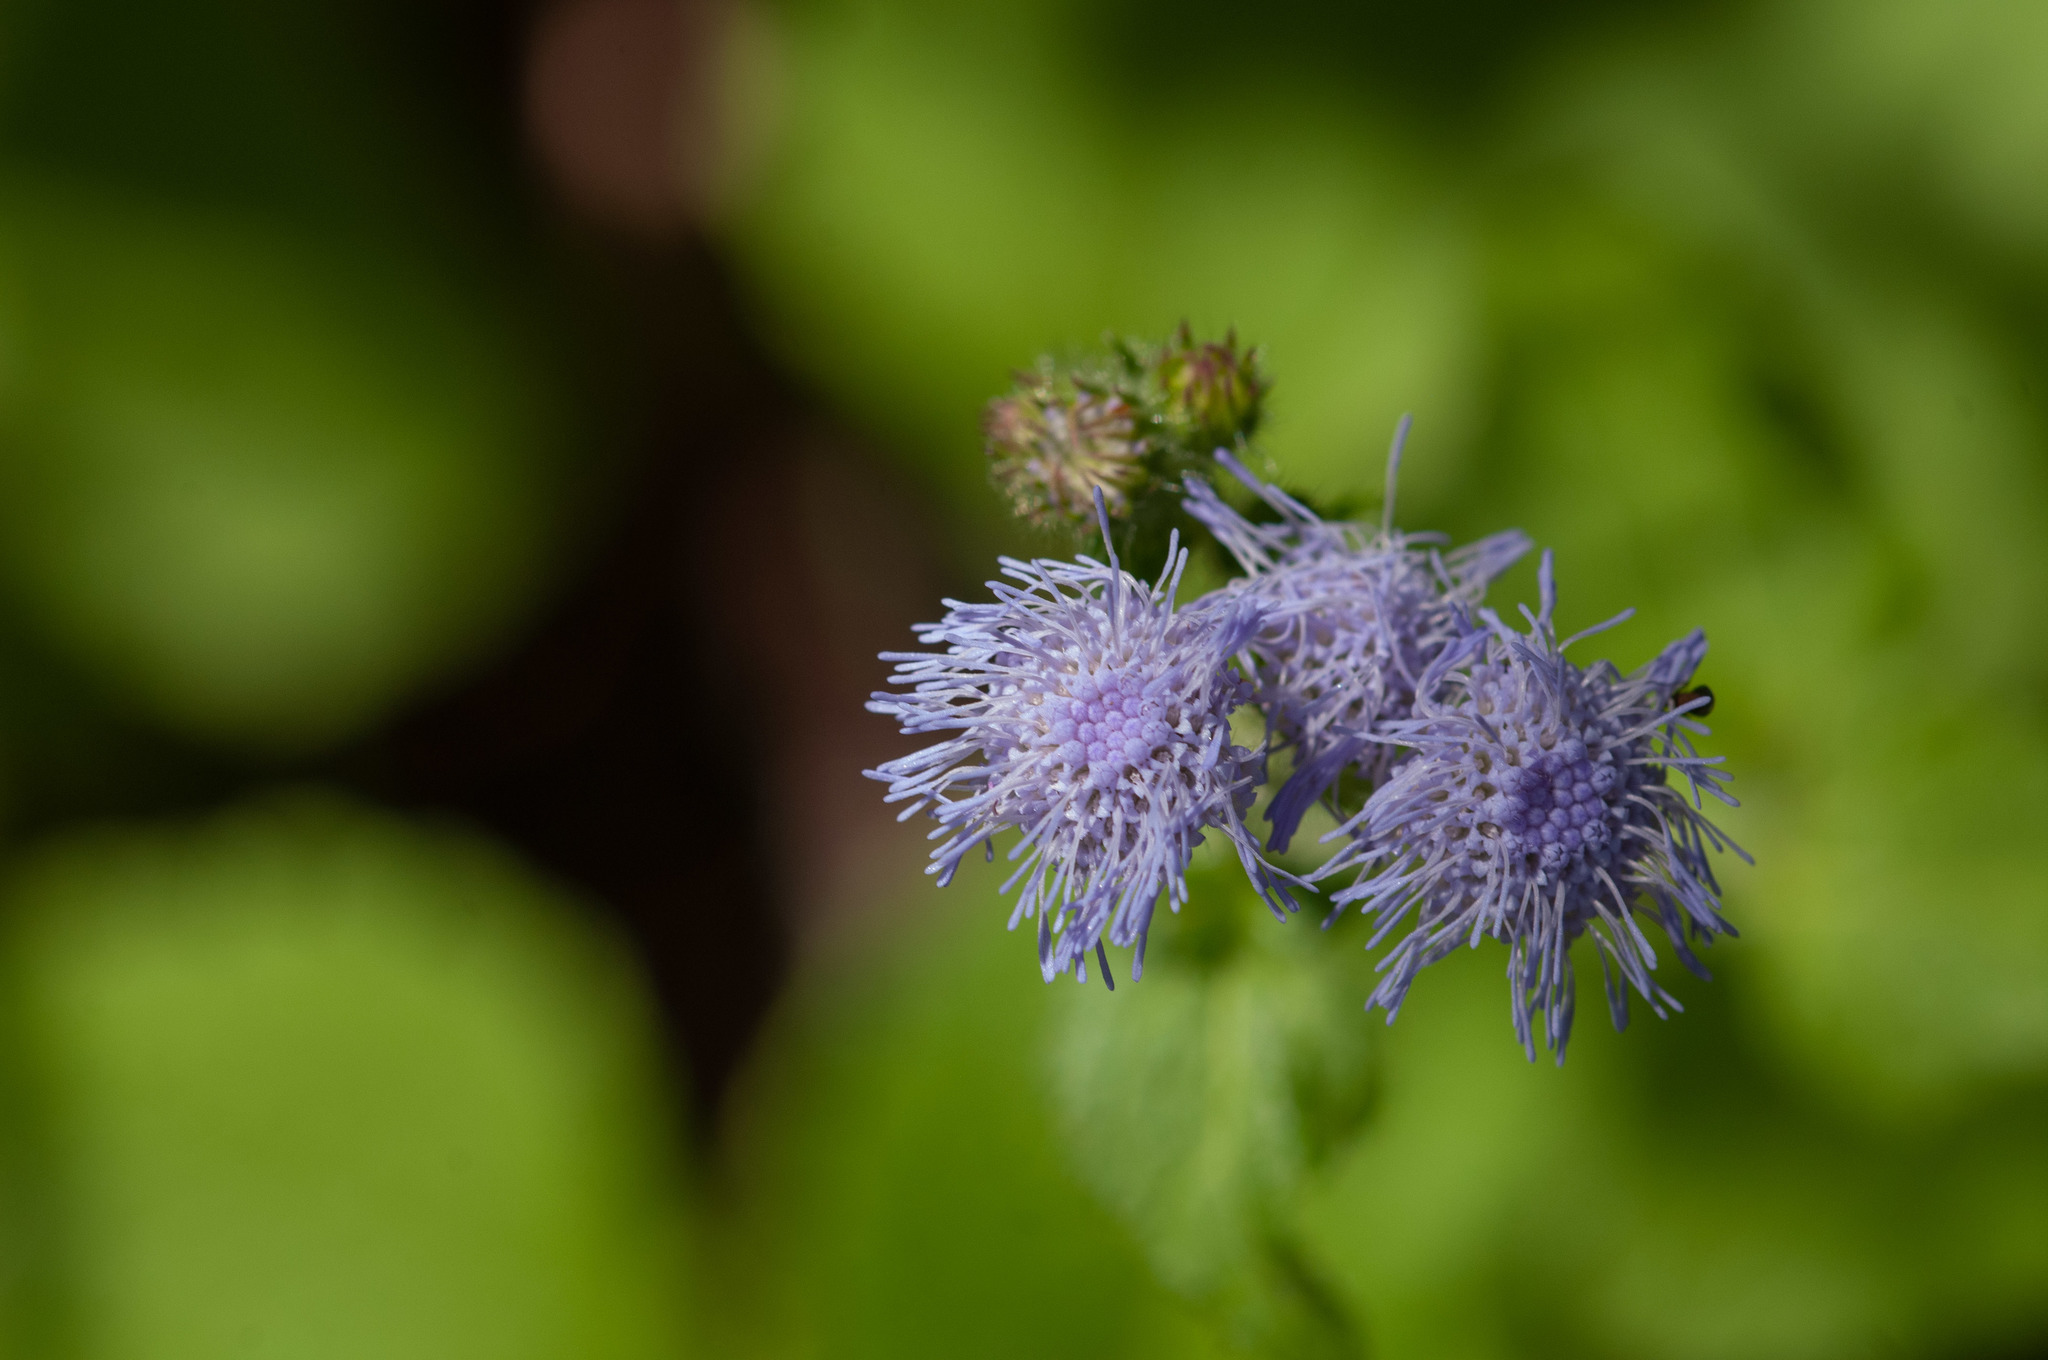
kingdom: Plantae
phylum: Tracheophyta
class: Magnoliopsida
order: Asterales
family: Asteraceae
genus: Ageratum
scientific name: Ageratum houstonianum
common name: Bluemink
